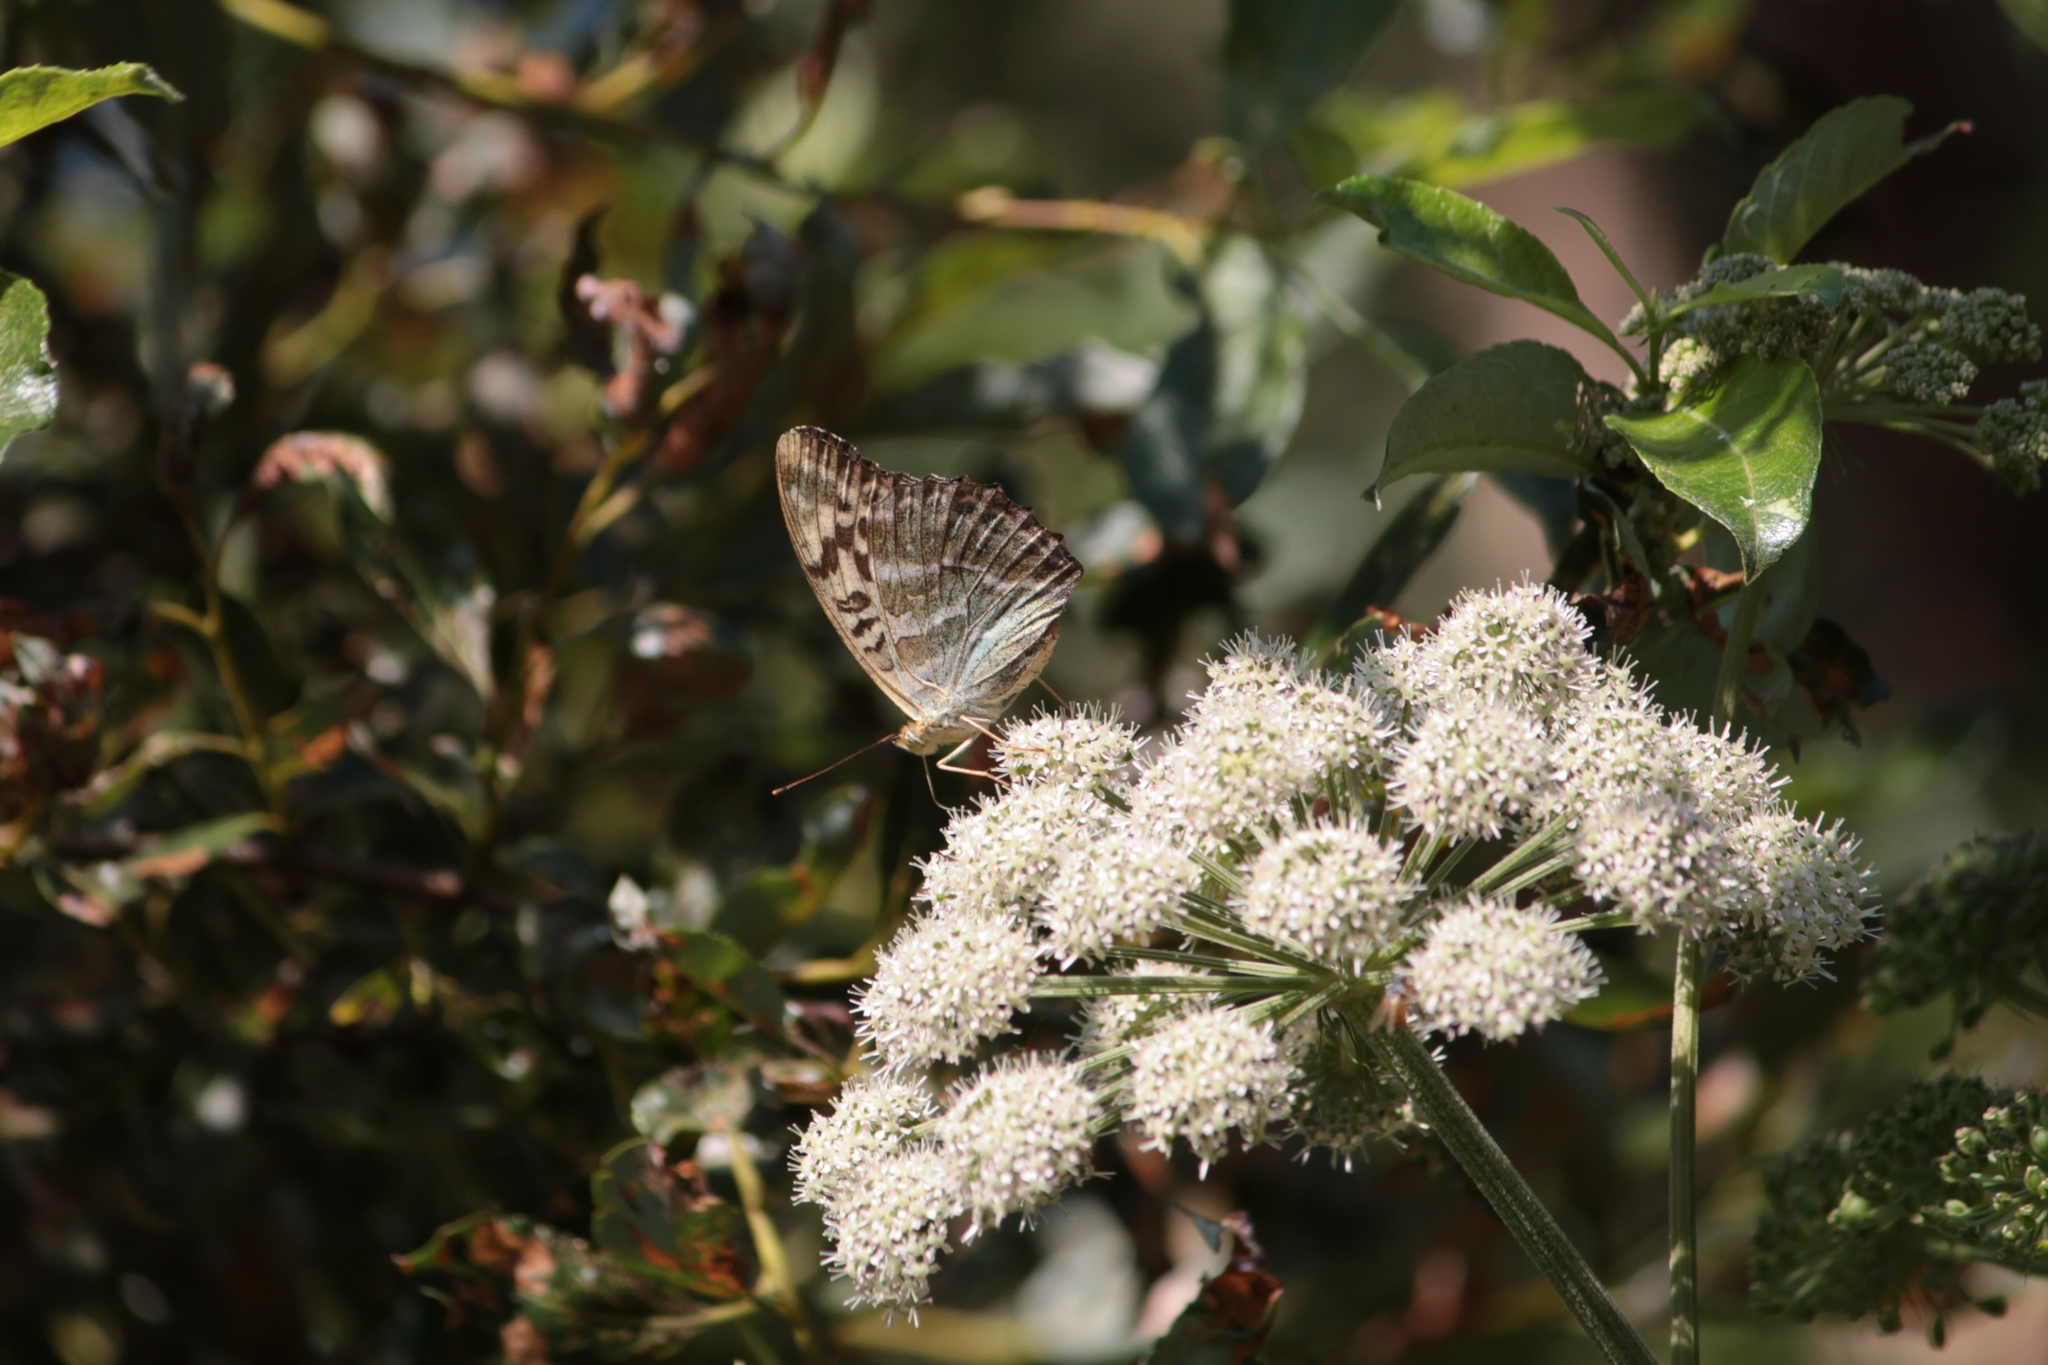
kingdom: Animalia
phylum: Arthropoda
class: Insecta
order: Lepidoptera
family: Nymphalidae
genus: Argynnis
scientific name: Argynnis paphia
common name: Silver-washed fritillary
